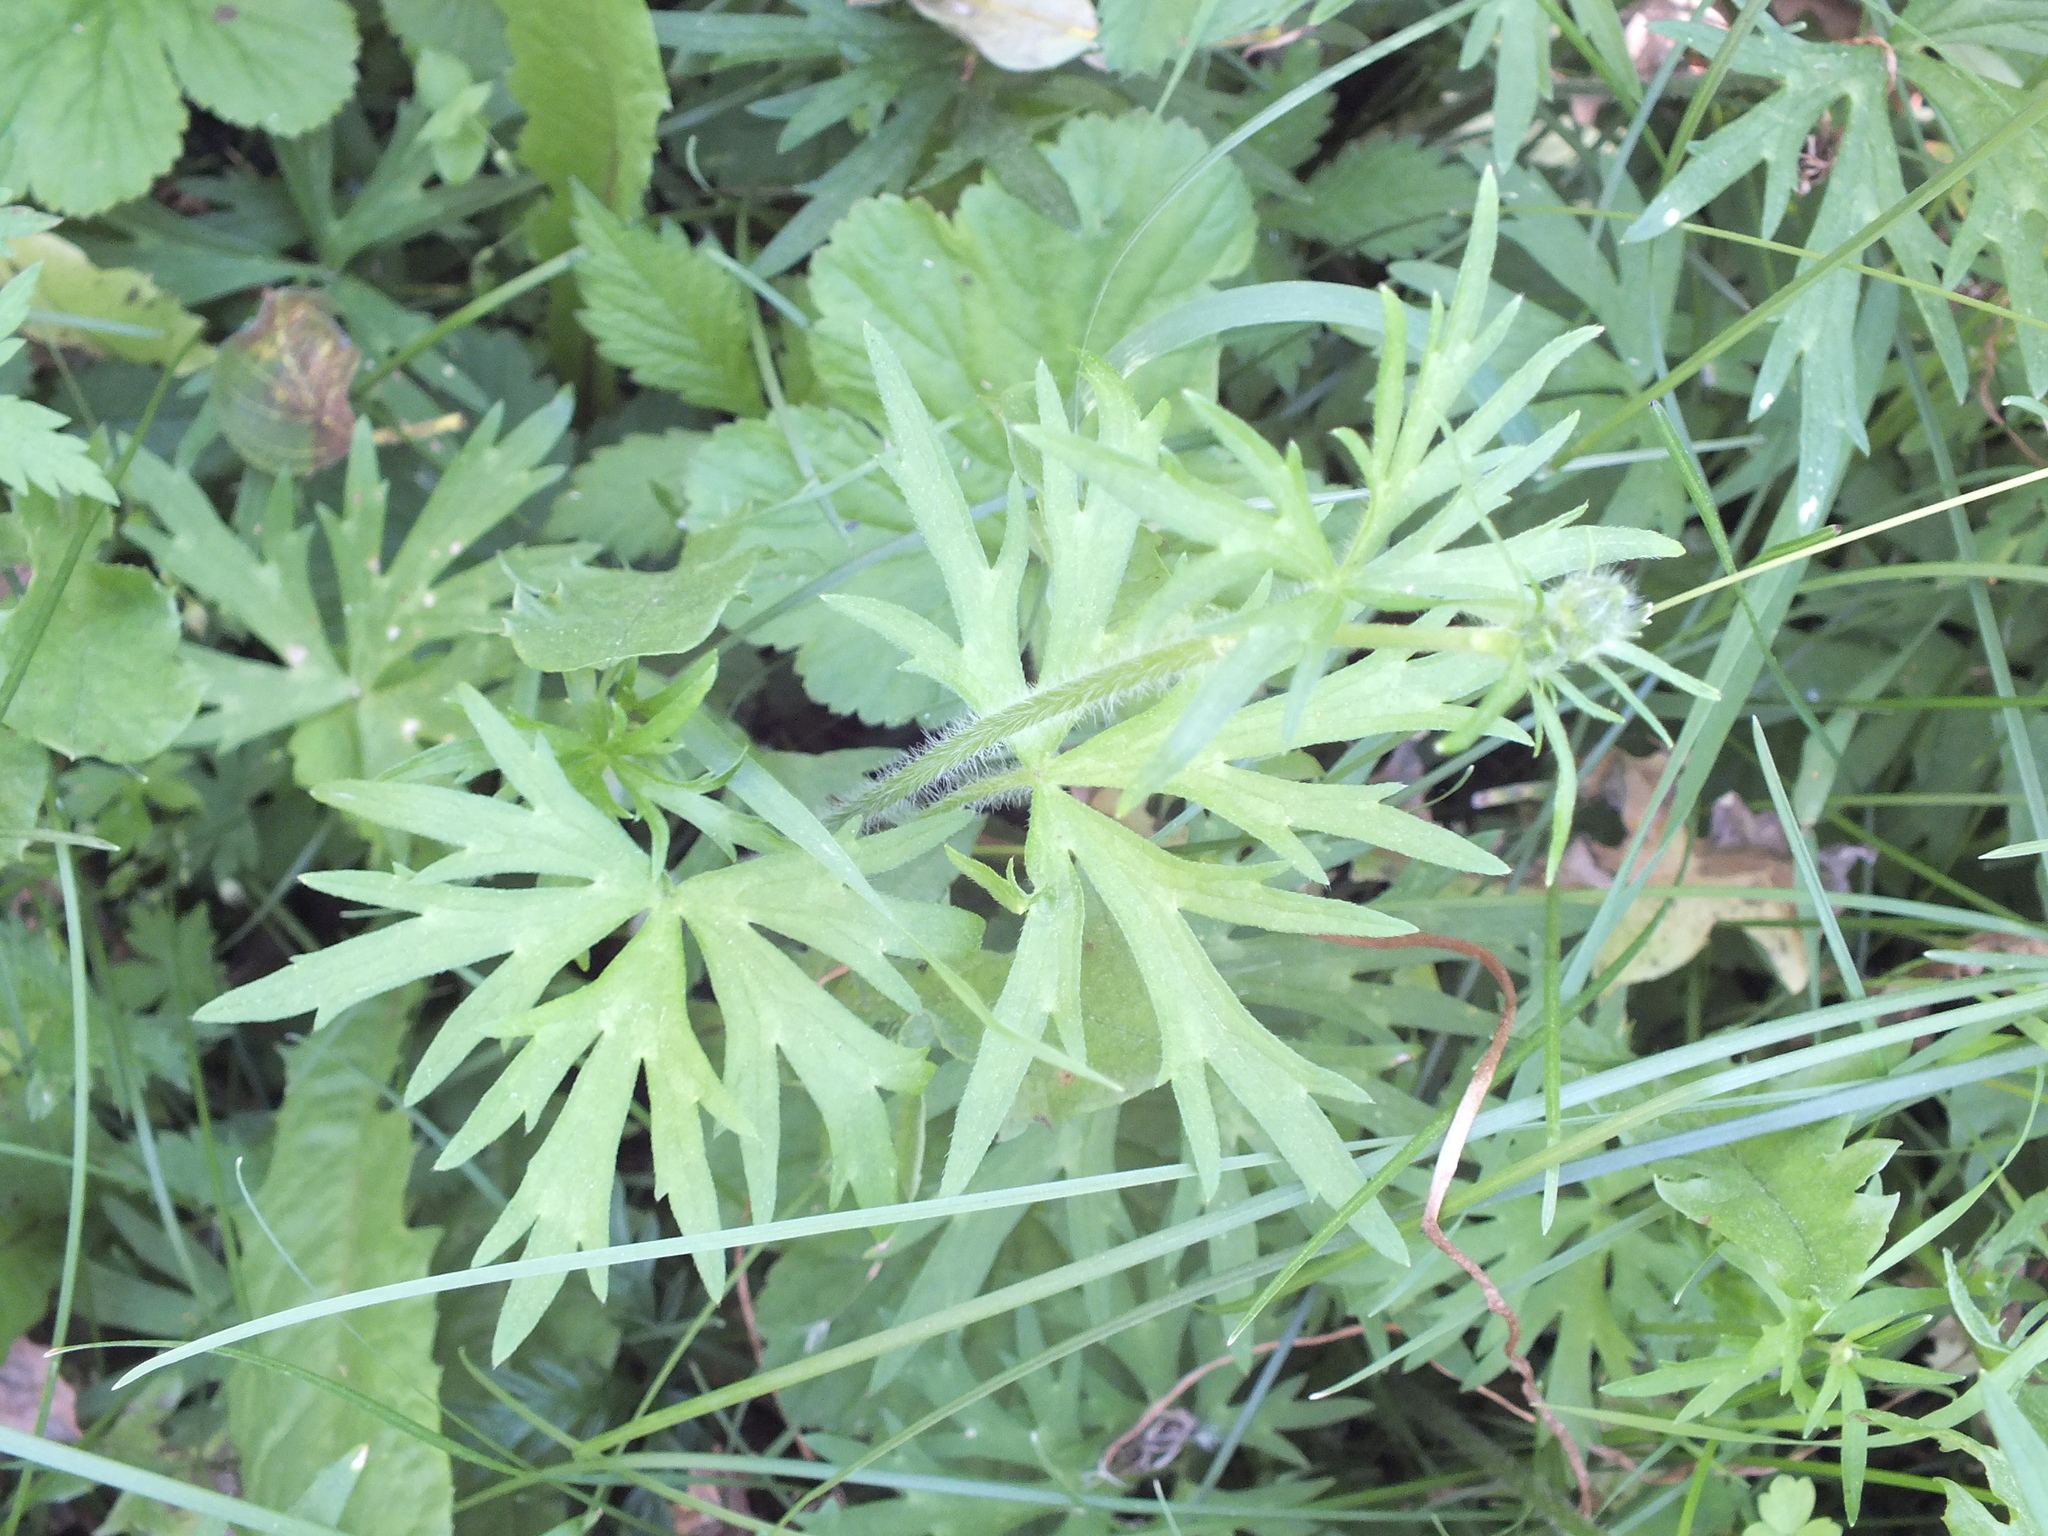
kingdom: Plantae
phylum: Tracheophyta
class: Magnoliopsida
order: Ranunculales
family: Ranunculaceae
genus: Ranunculus
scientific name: Ranunculus polyanthemos
